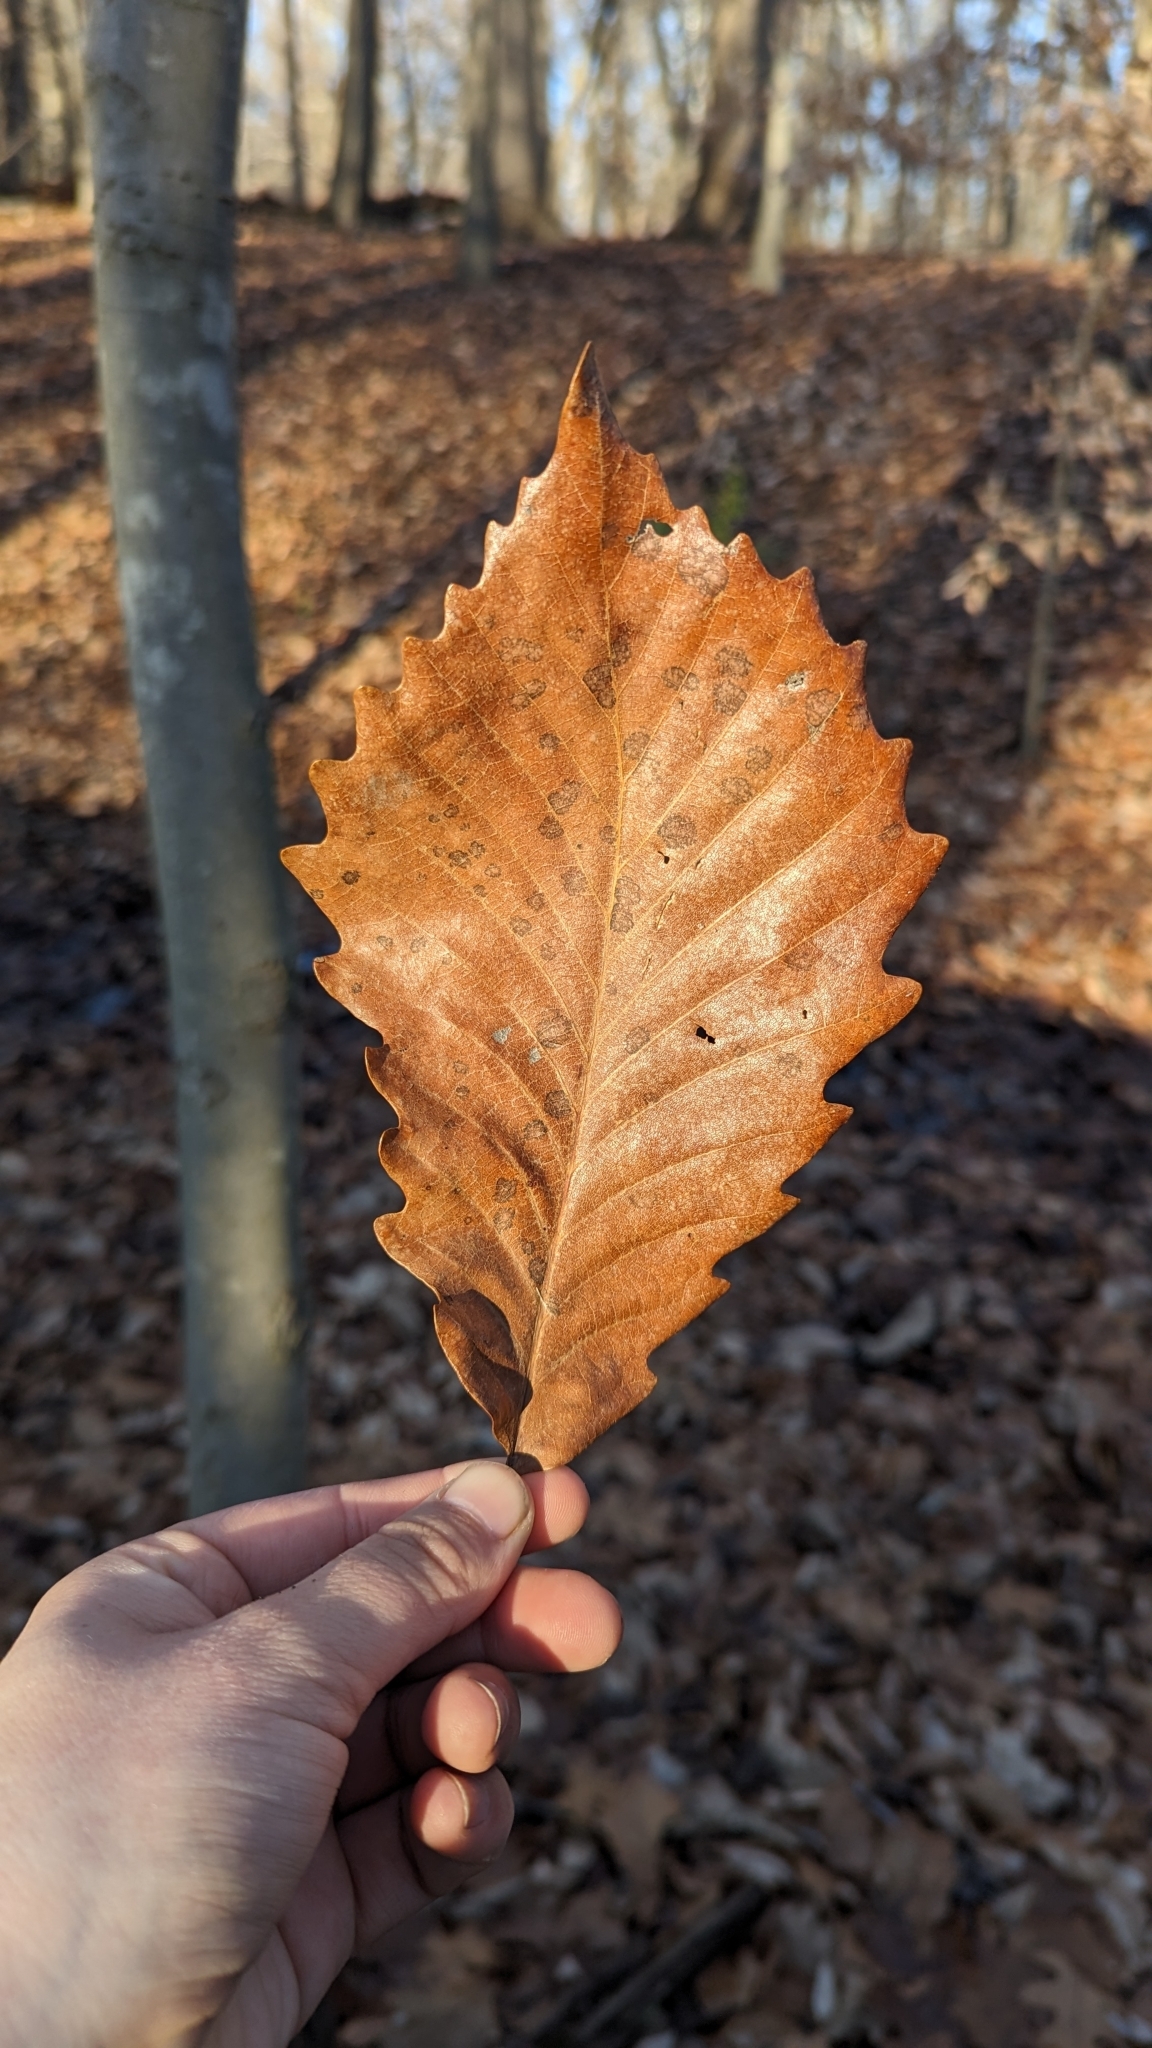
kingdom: Plantae
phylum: Tracheophyta
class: Magnoliopsida
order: Fagales
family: Fagaceae
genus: Quercus
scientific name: Quercus michauxii
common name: Swamp chestnut oak
